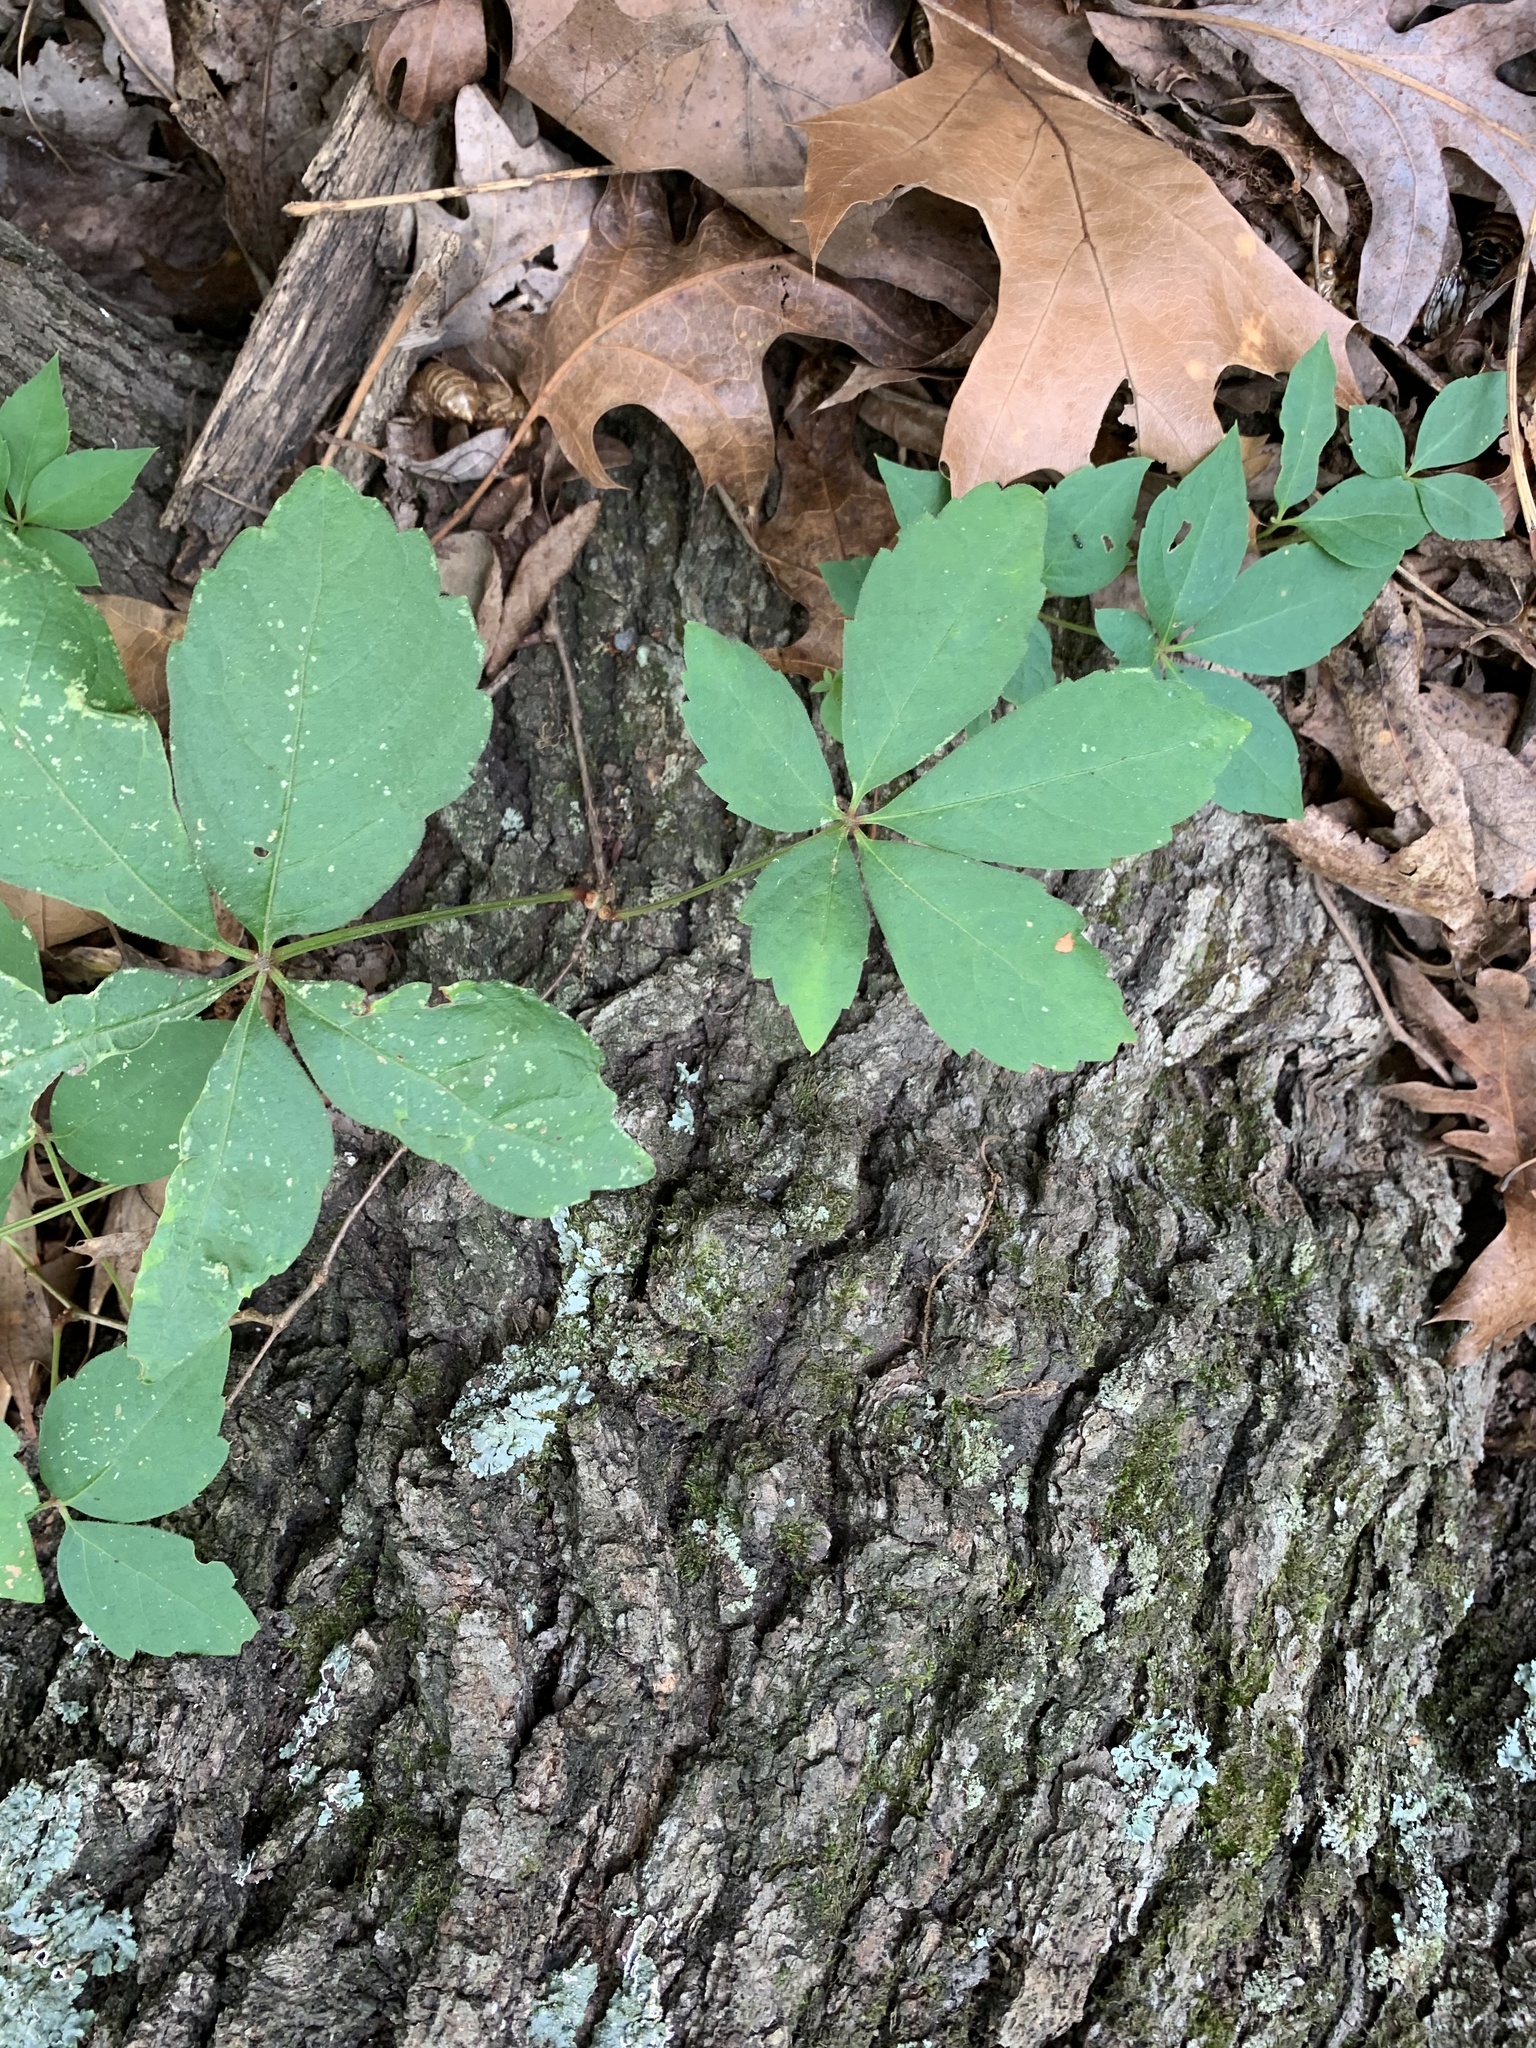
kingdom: Plantae
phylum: Tracheophyta
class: Magnoliopsida
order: Vitales
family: Vitaceae
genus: Parthenocissus
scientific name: Parthenocissus quinquefolia
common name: Virginia-creeper
